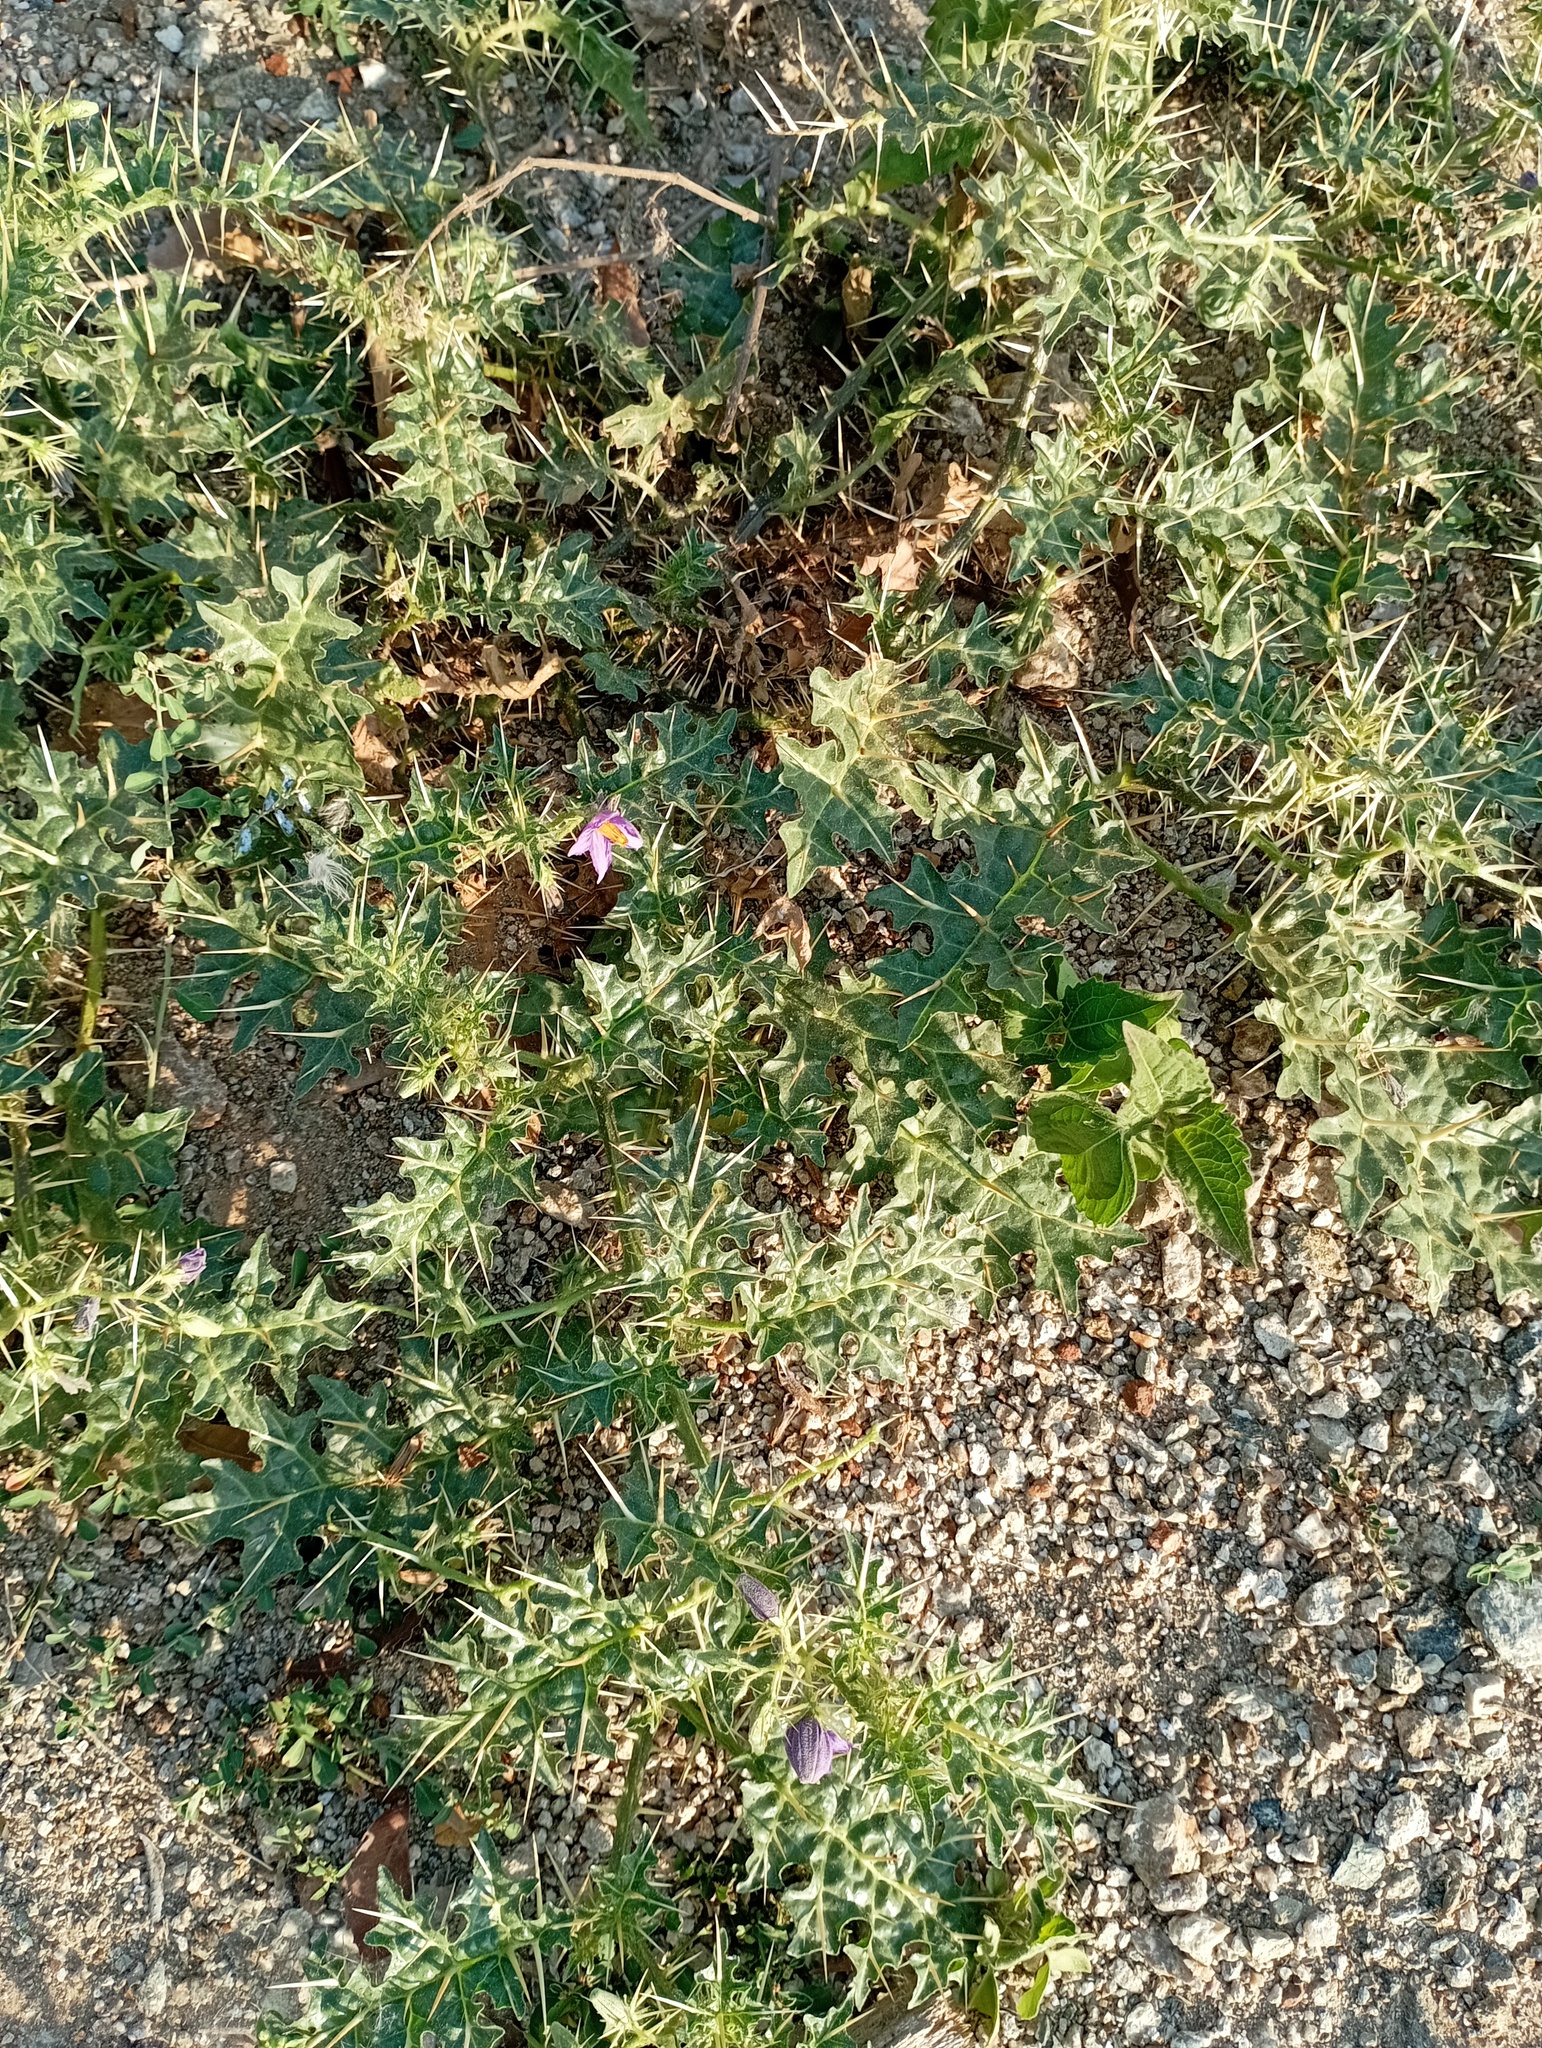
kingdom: Plantae
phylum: Tracheophyta
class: Magnoliopsida
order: Solanales
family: Solanaceae
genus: Solanum
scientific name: Solanum virginianum
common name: Surattense nightshade
